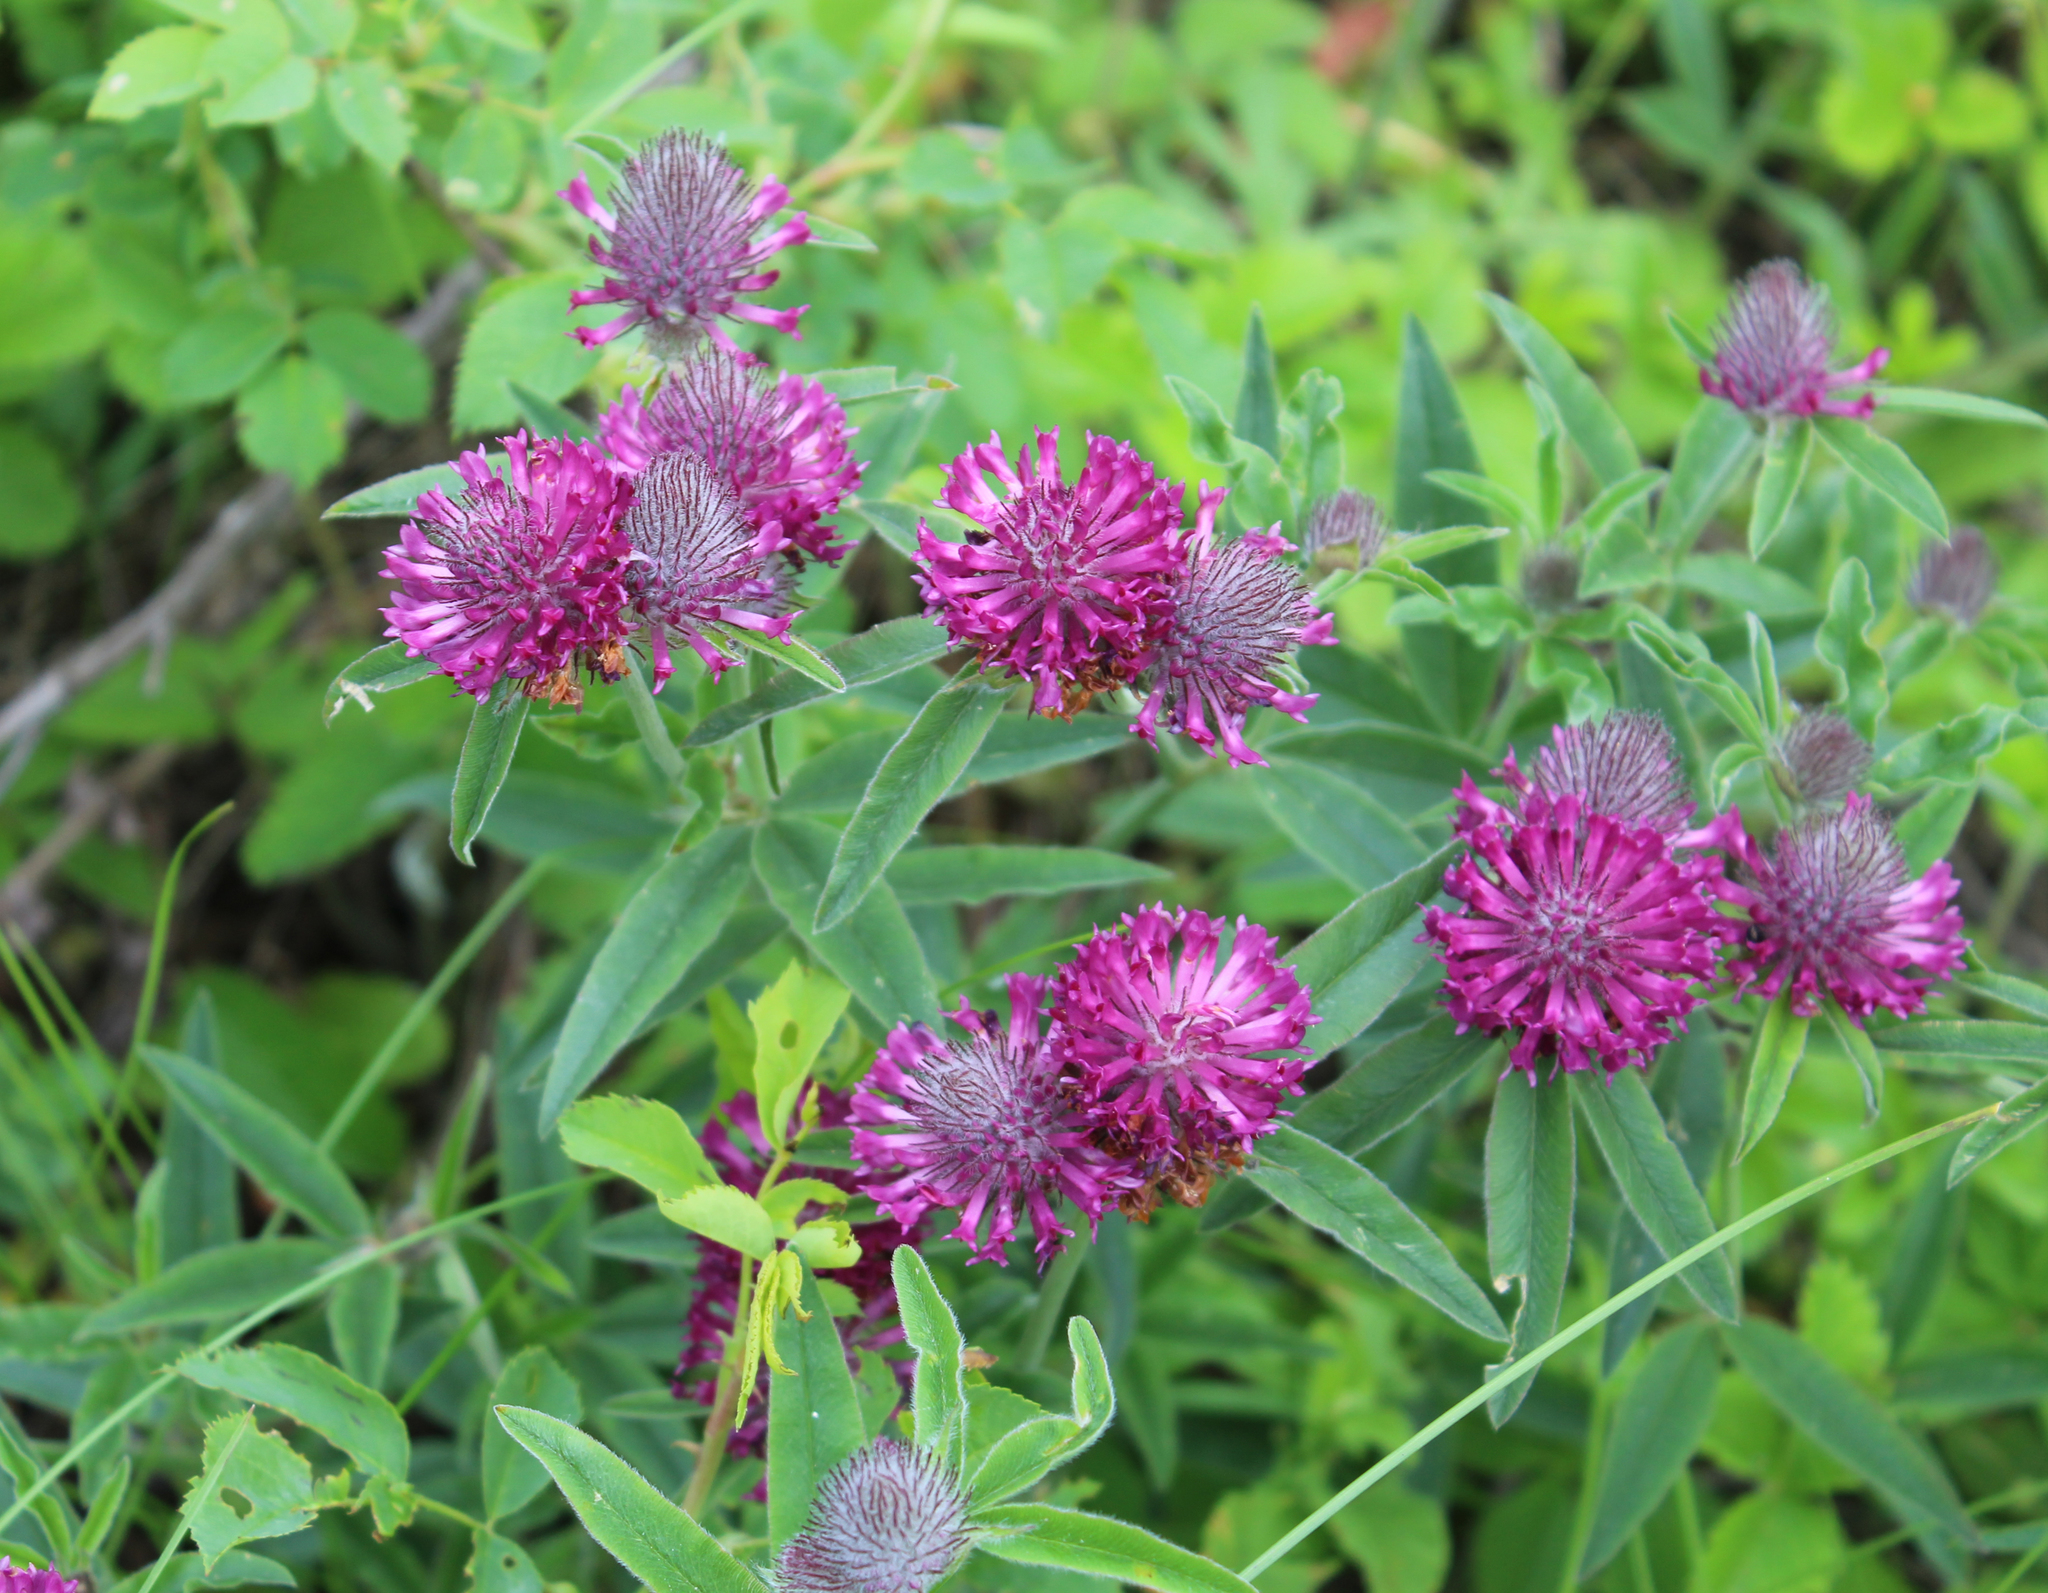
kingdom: Plantae
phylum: Tracheophyta
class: Magnoliopsida
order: Fabales
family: Fabaceae
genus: Trifolium
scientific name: Trifolium alpestre
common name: Owl-head clover
